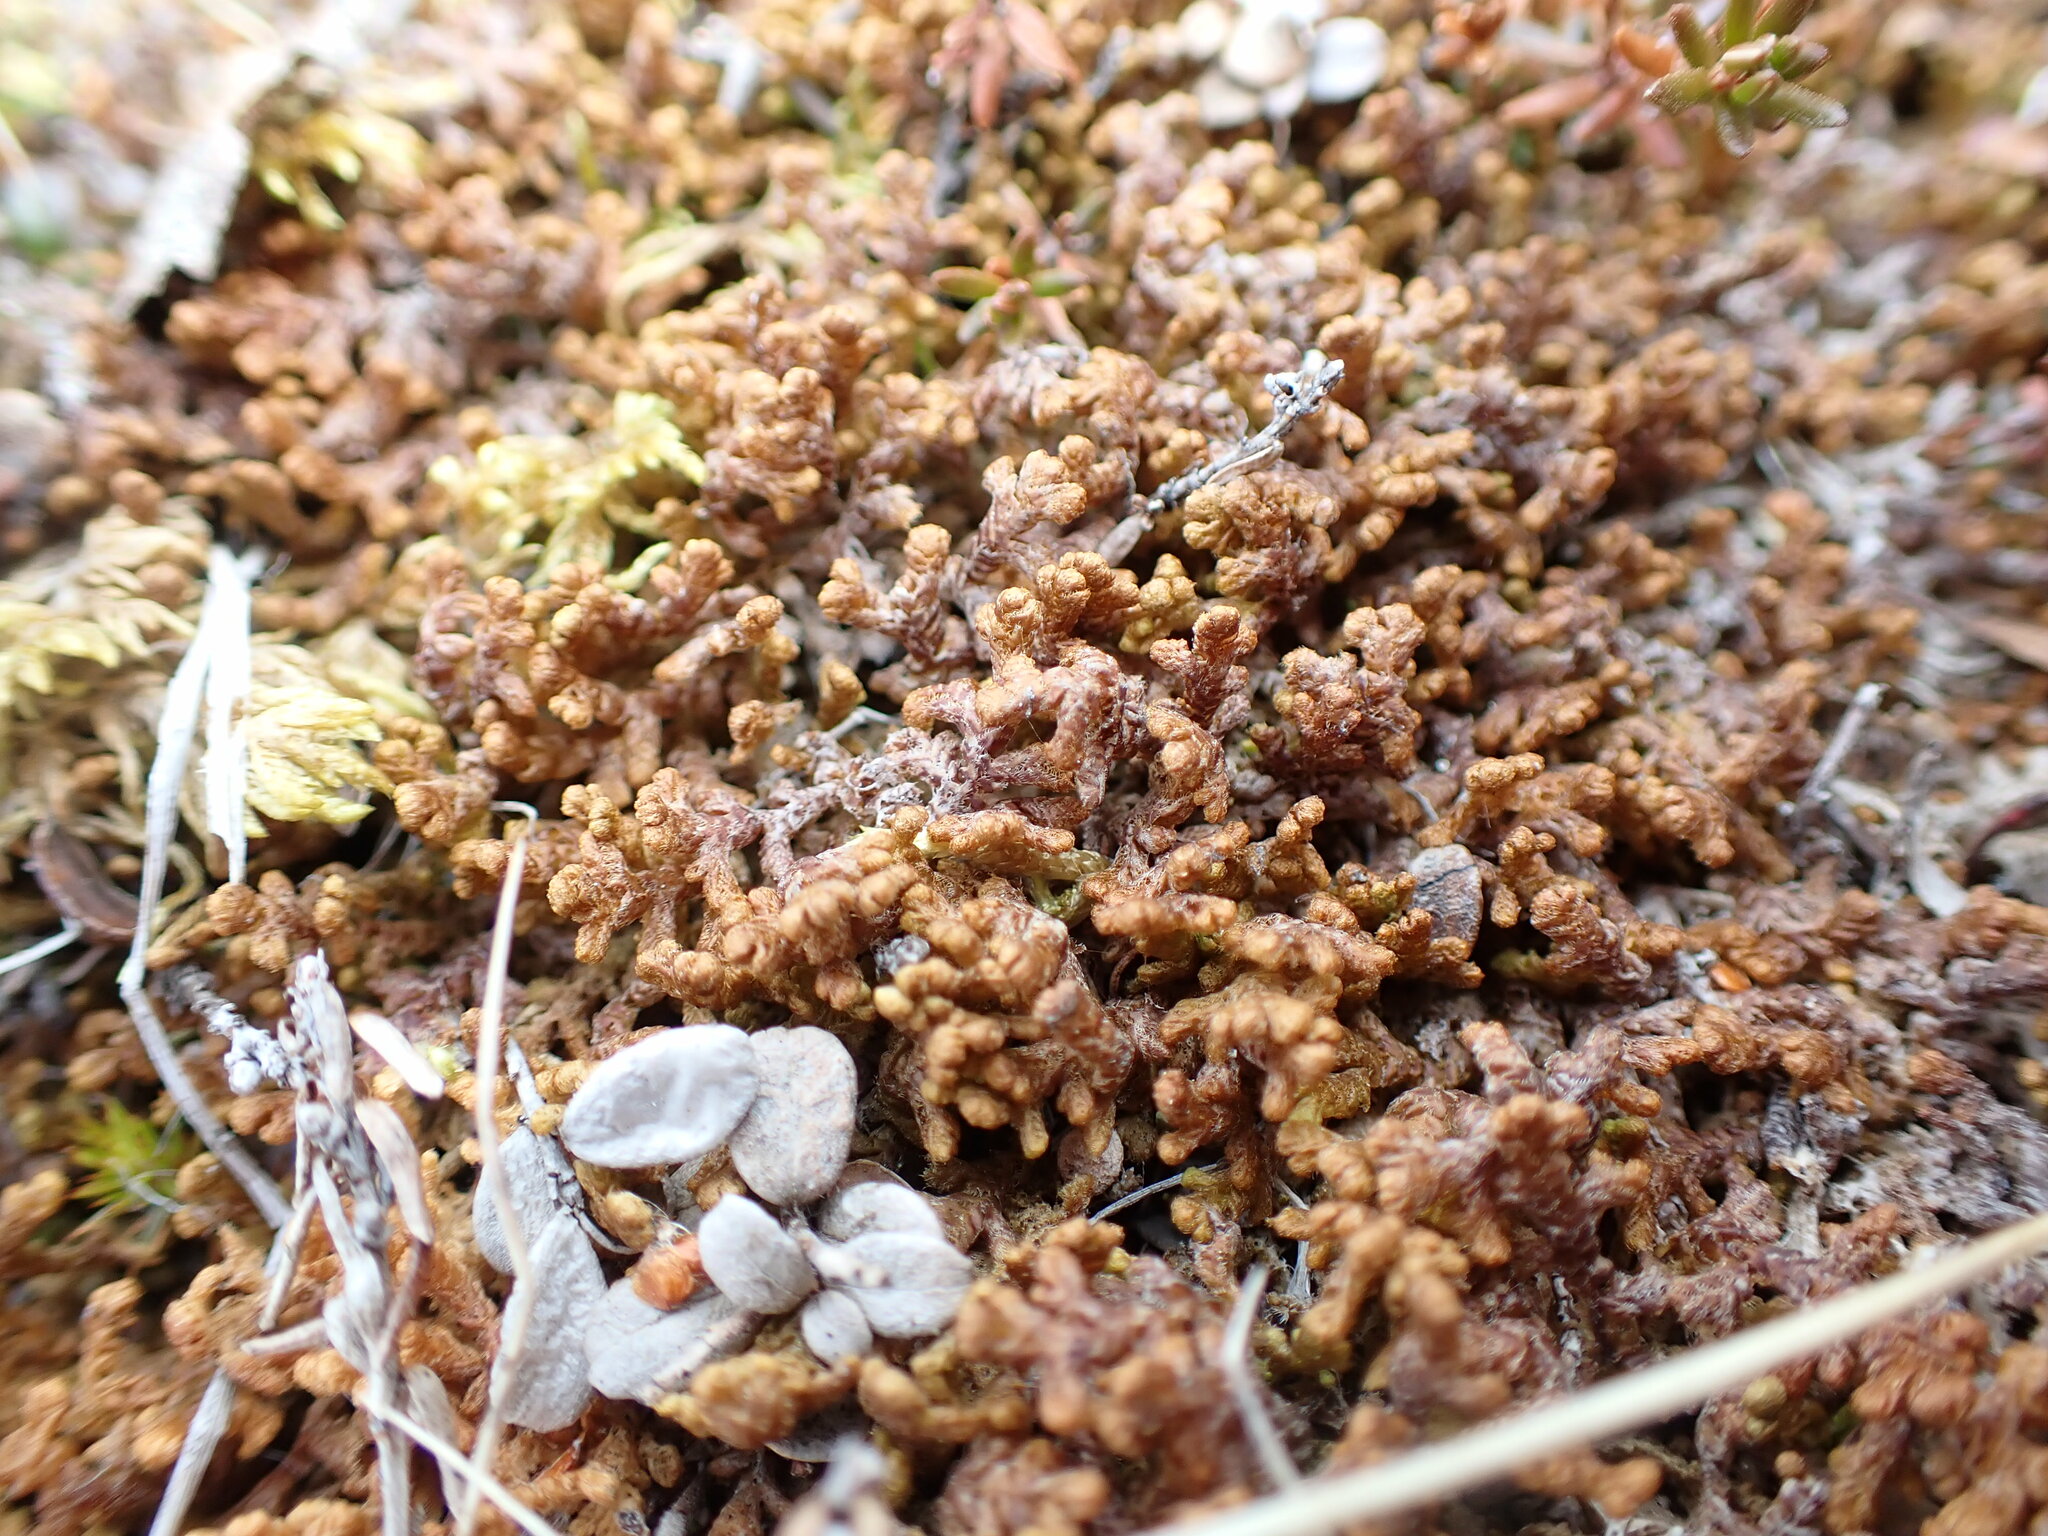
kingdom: Plantae
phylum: Marchantiophyta
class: Jungermanniopsida
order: Ptilidiales
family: Ptilidiaceae
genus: Ptilidium
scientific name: Ptilidium ciliare
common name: Ciliate fringewort
